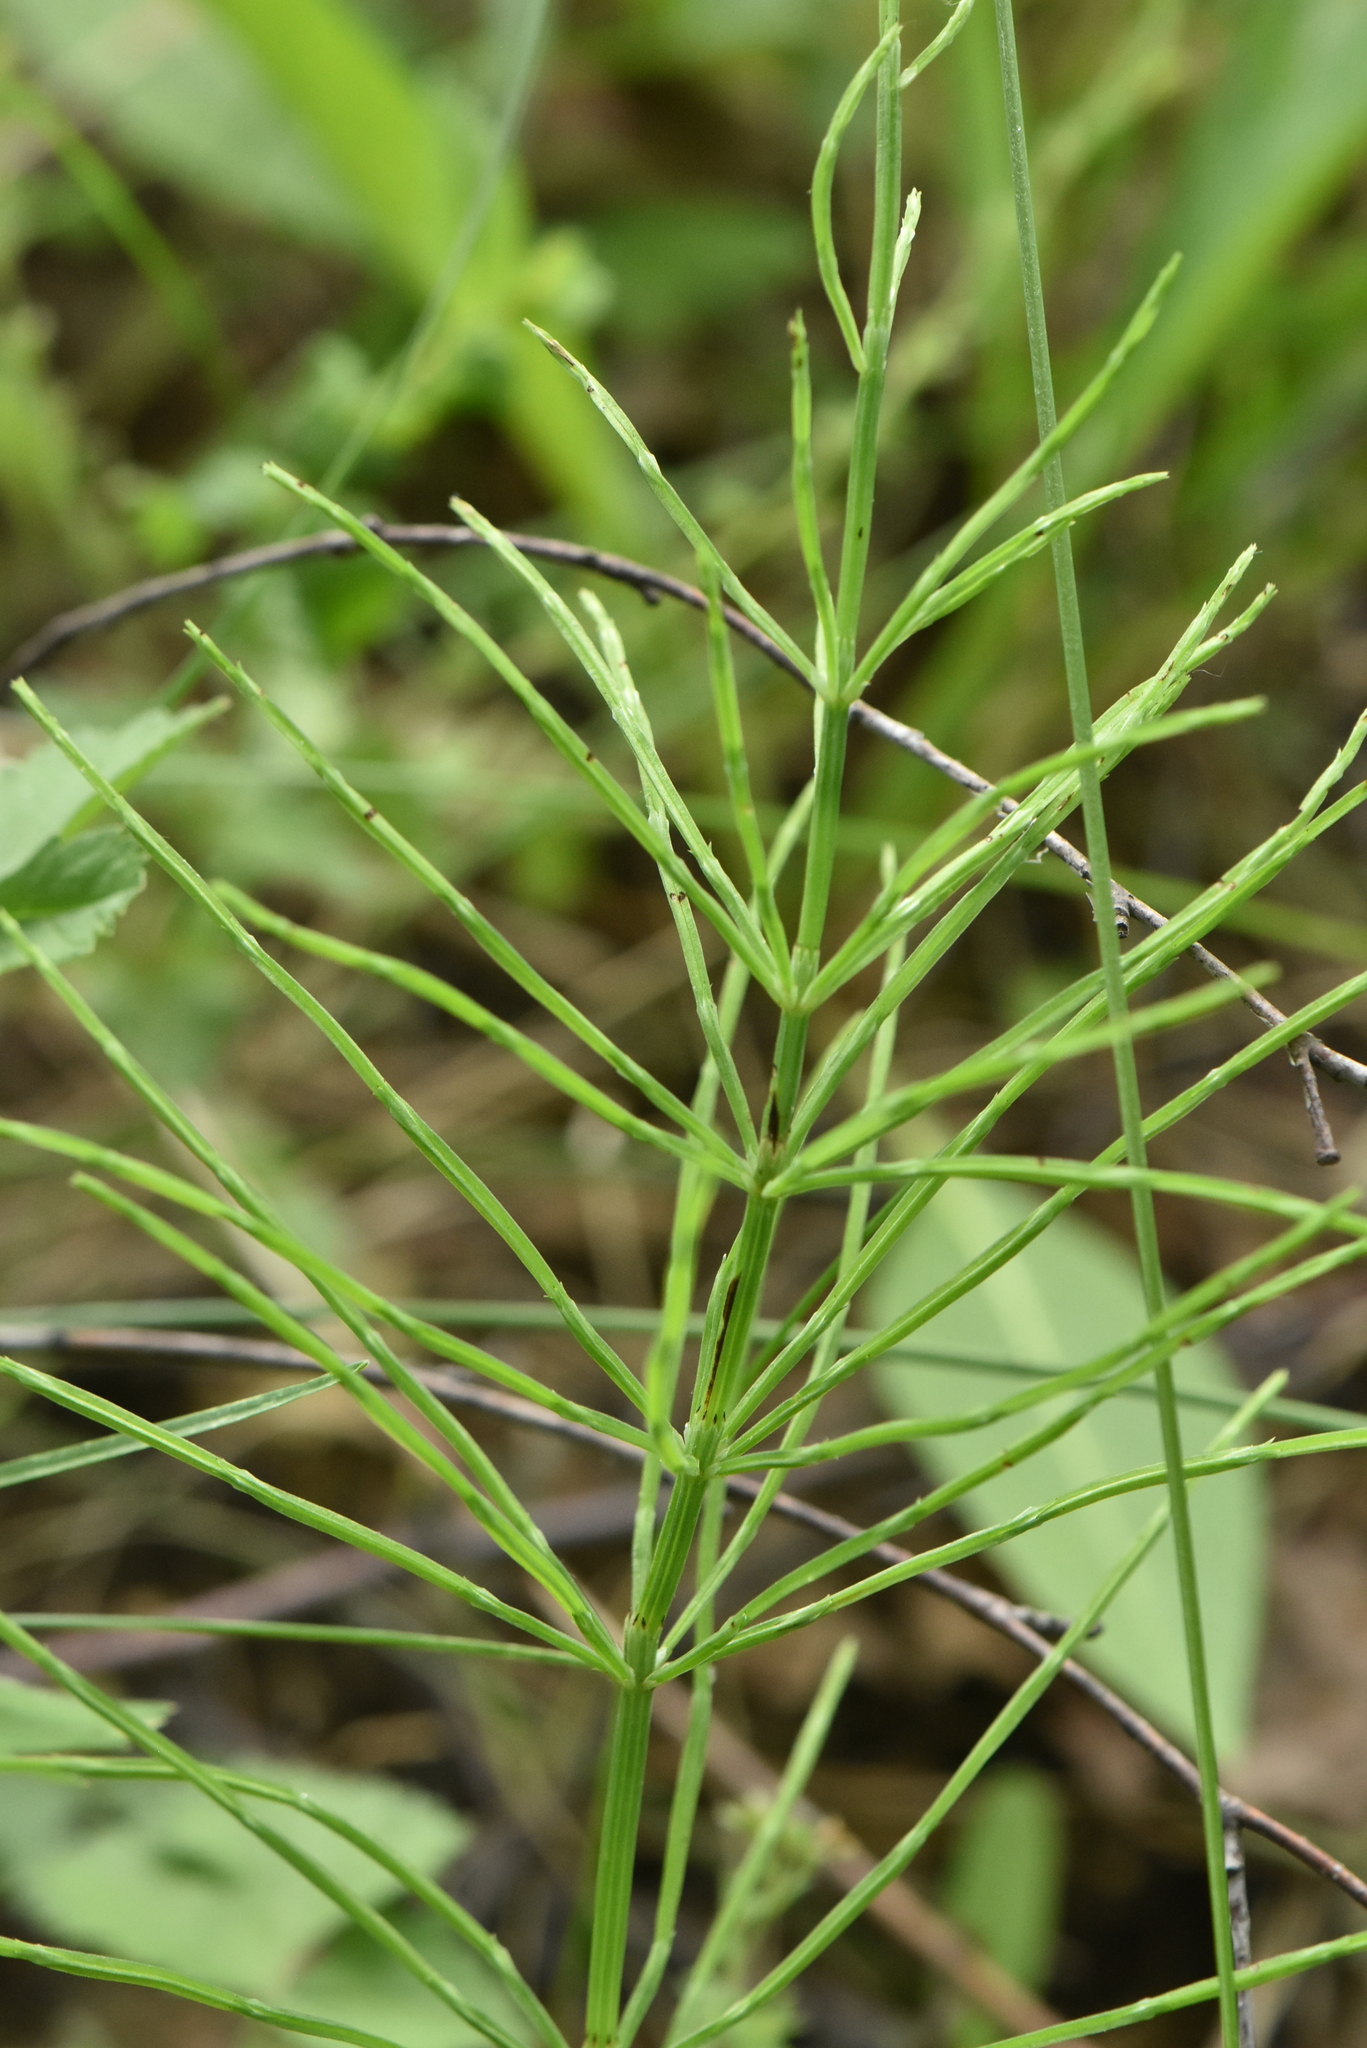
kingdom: Plantae
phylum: Tracheophyta
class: Polypodiopsida
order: Equisetales
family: Equisetaceae
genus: Equisetum
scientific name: Equisetum arvense
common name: Field horsetail
